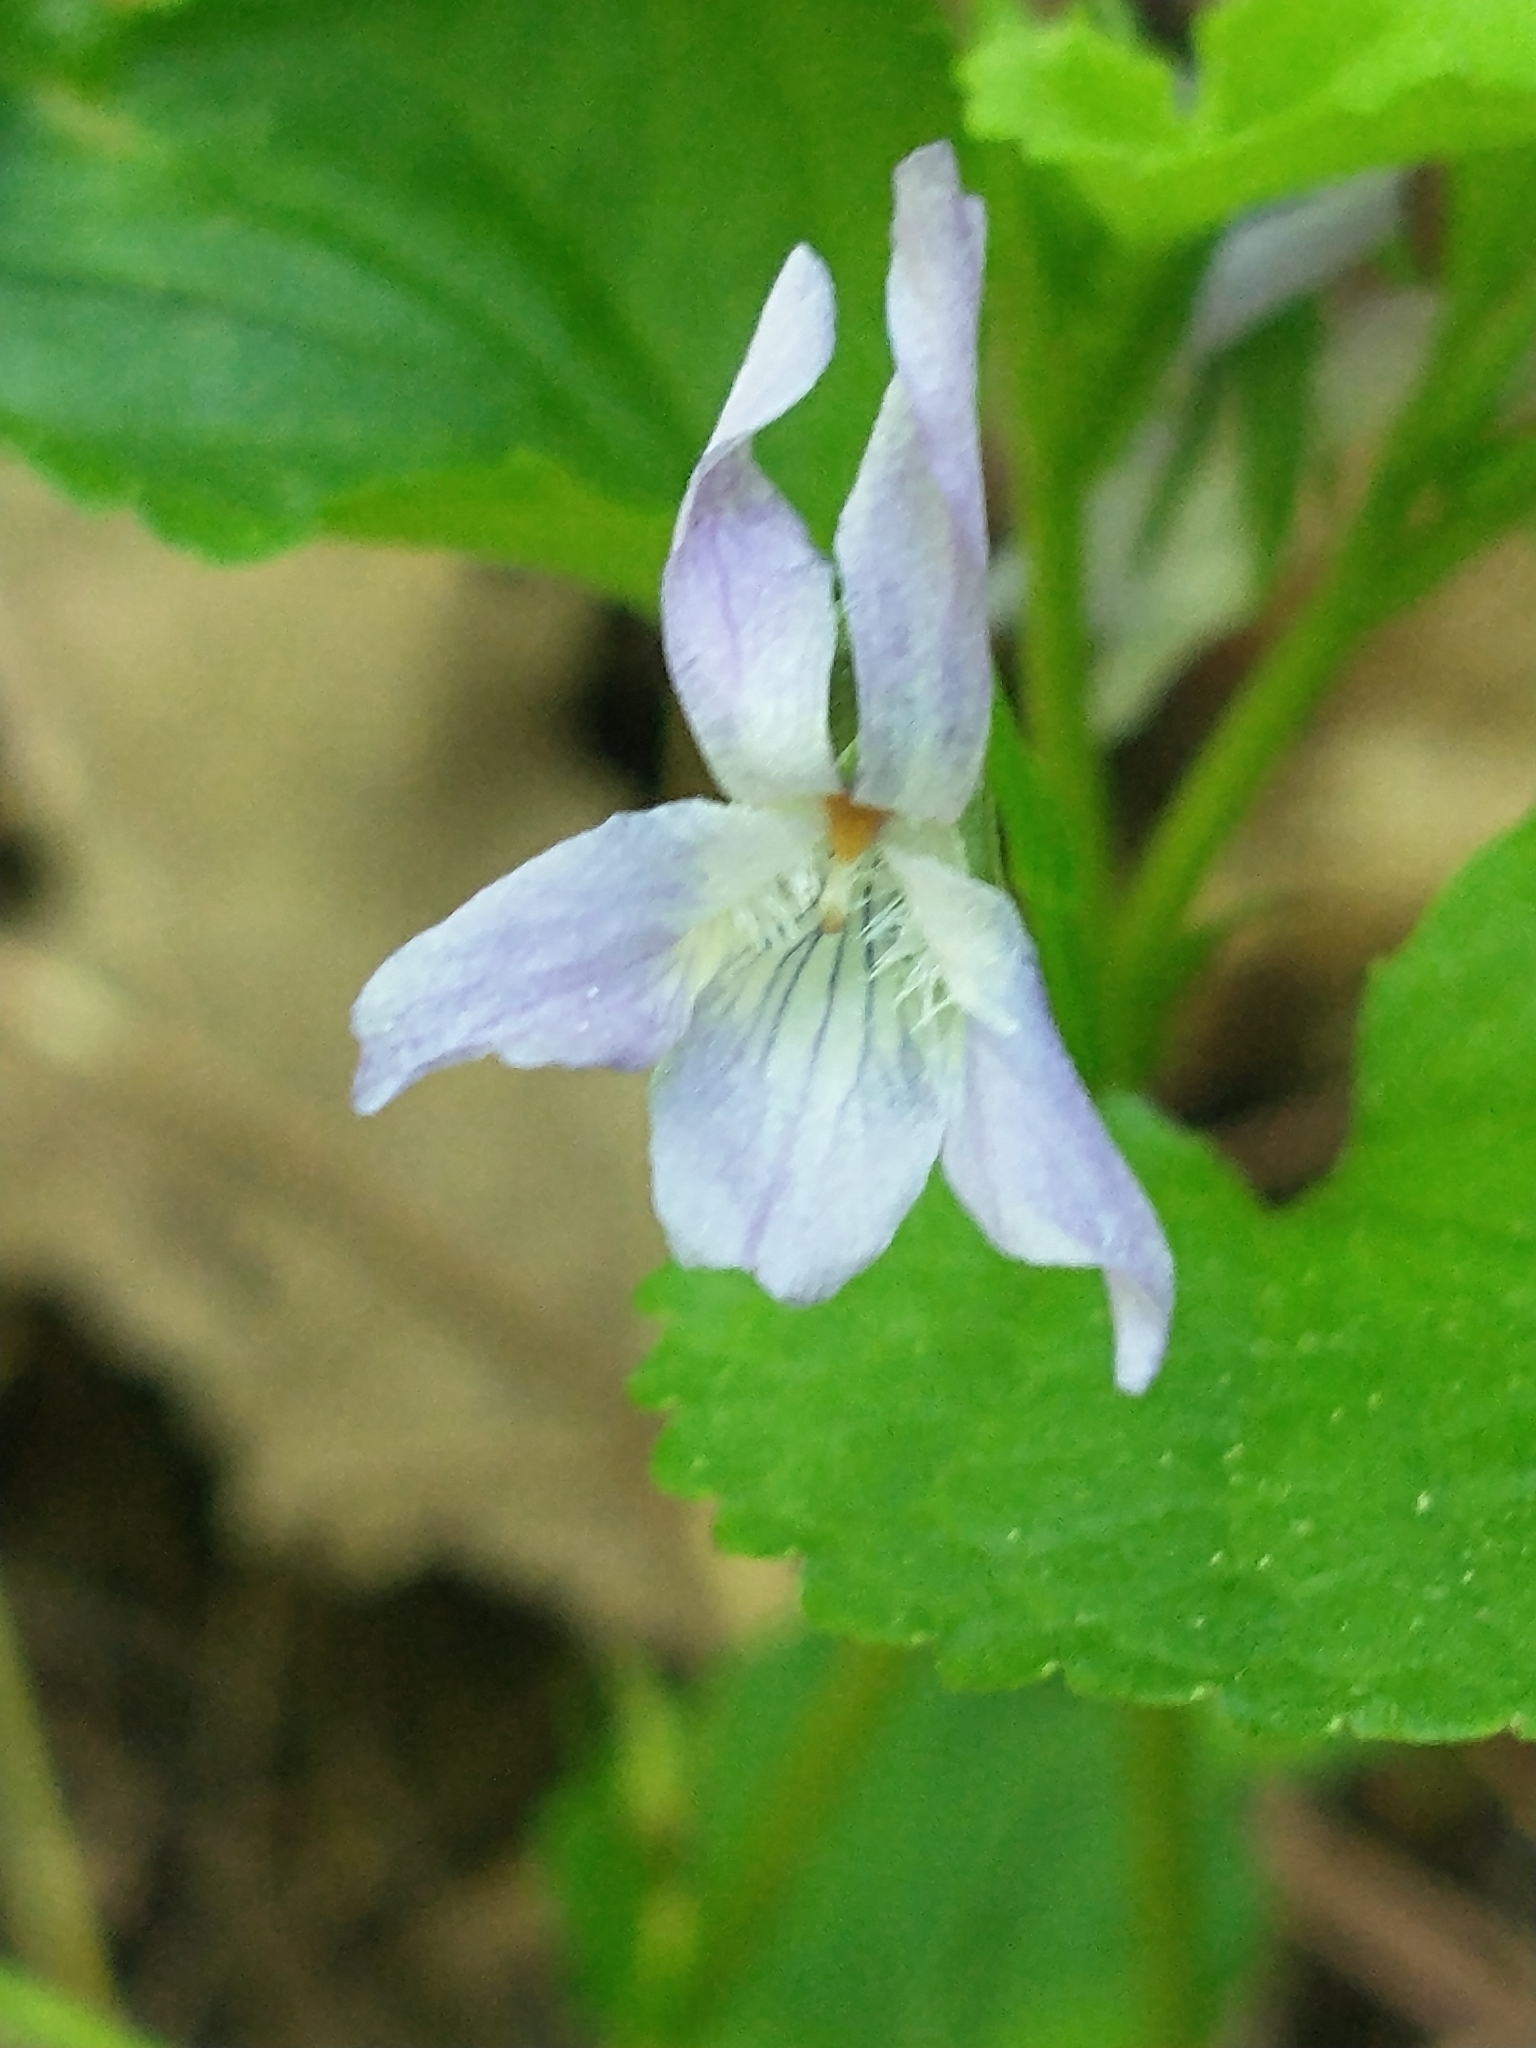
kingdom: Plantae
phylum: Tracheophyta
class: Magnoliopsida
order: Malpighiales
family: Violaceae
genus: Viola
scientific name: Viola labradorica
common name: Labrador violet
